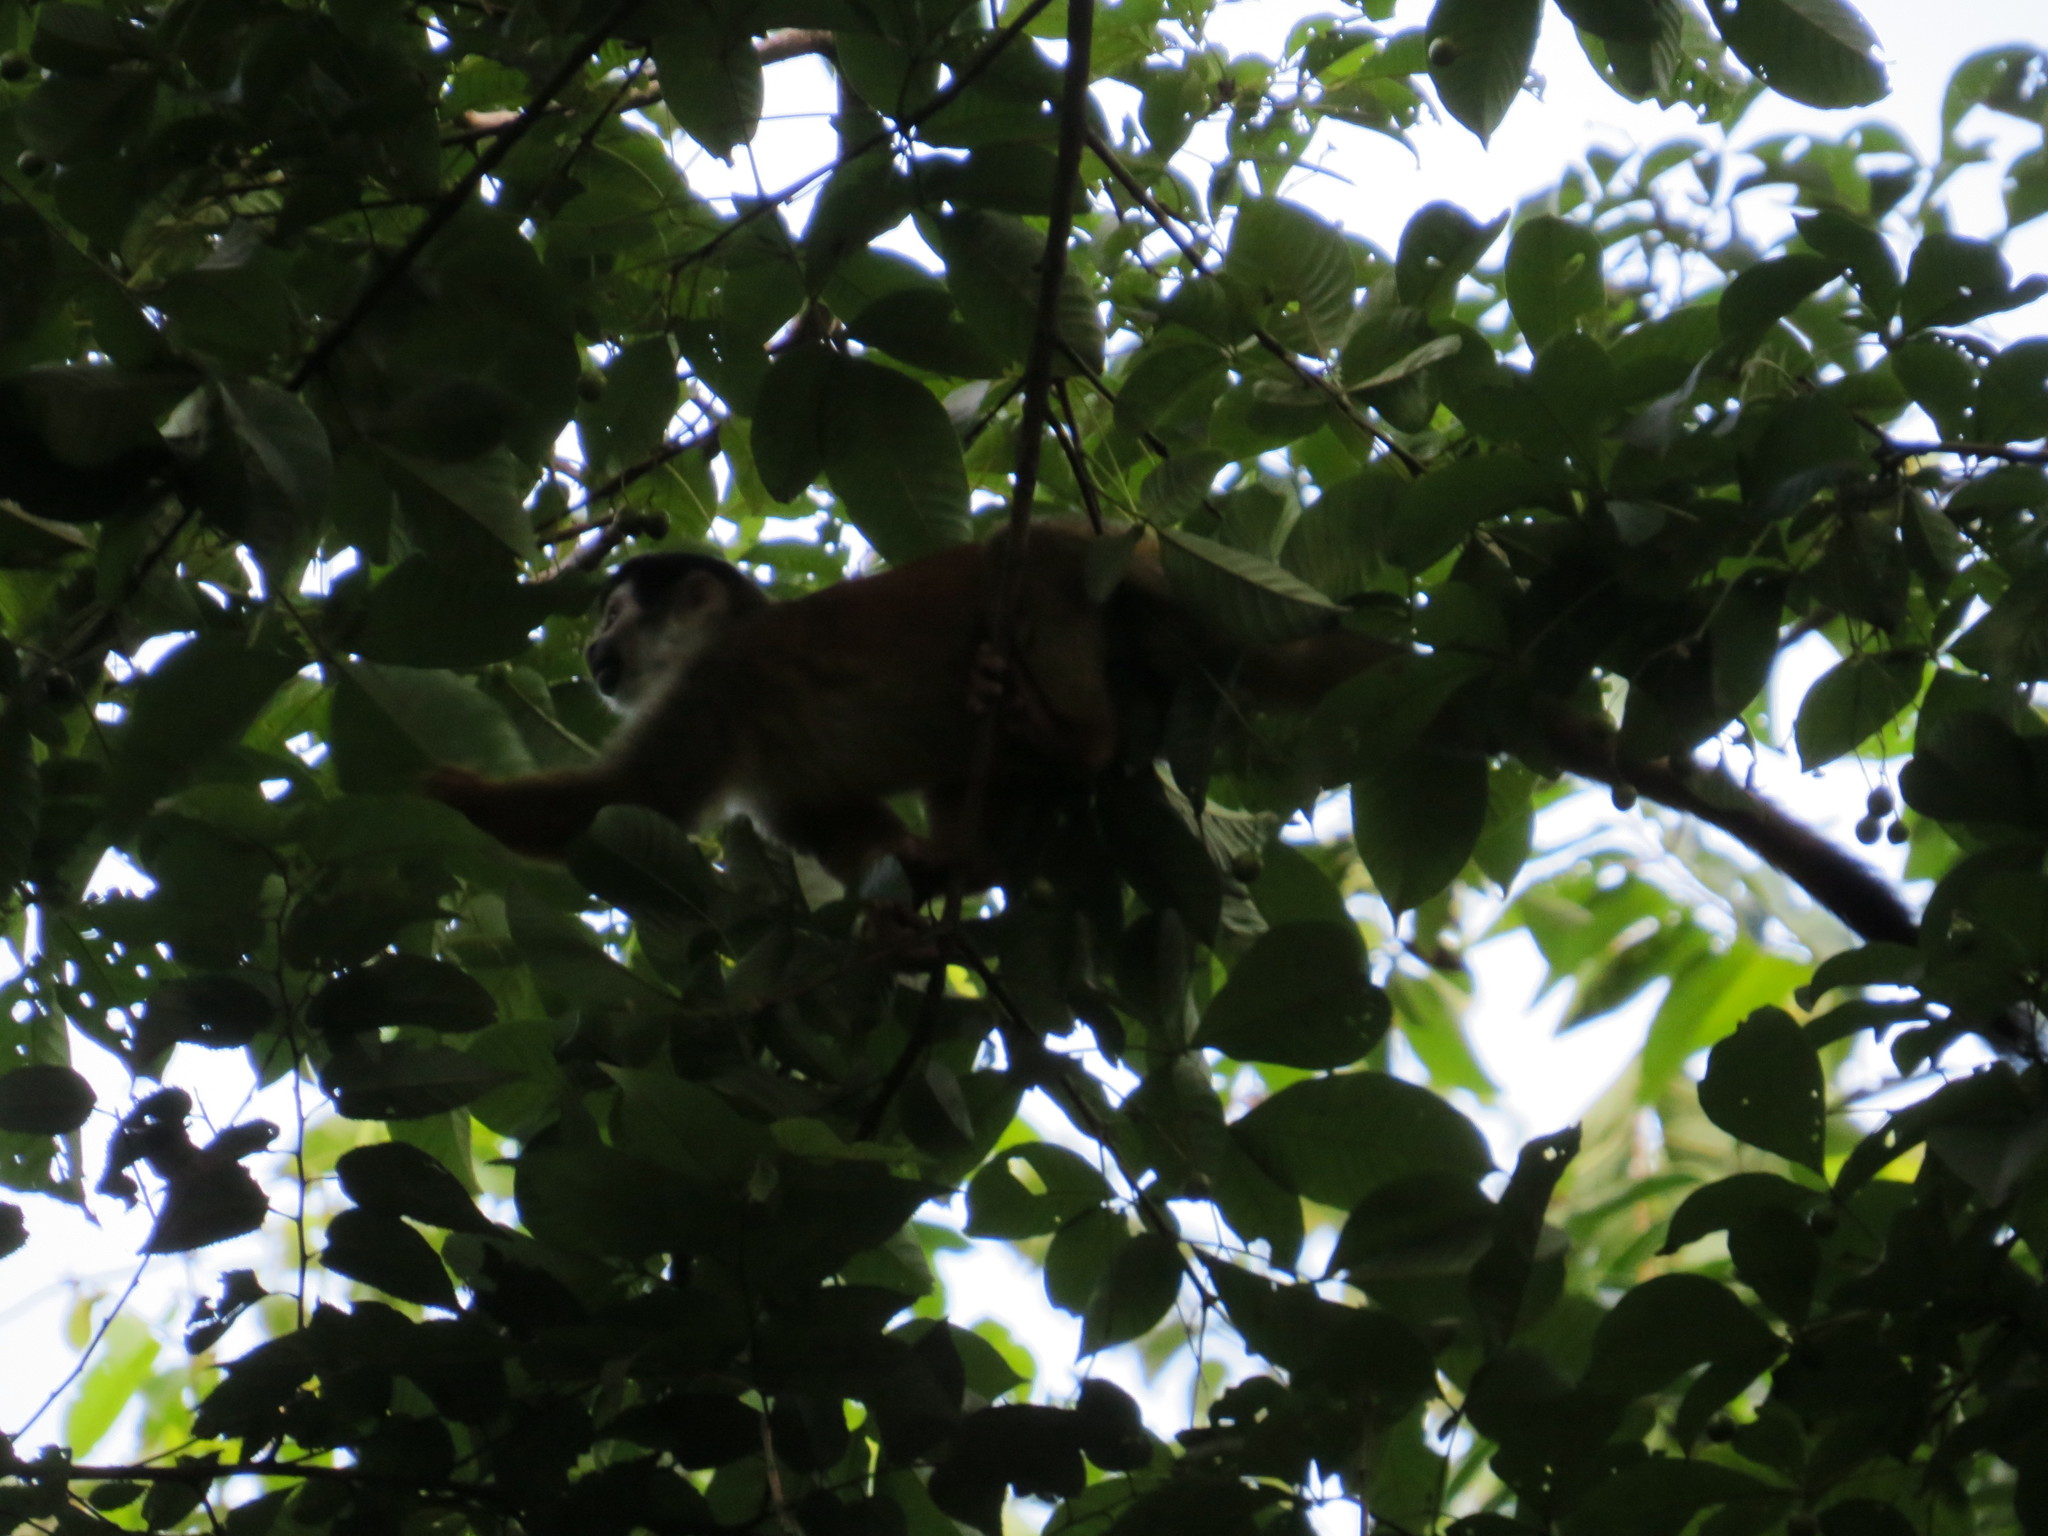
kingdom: Animalia
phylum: Chordata
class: Mammalia
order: Primates
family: Cebidae
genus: Saimiri
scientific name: Saimiri oerstedii
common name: Central american squirrel monkey
